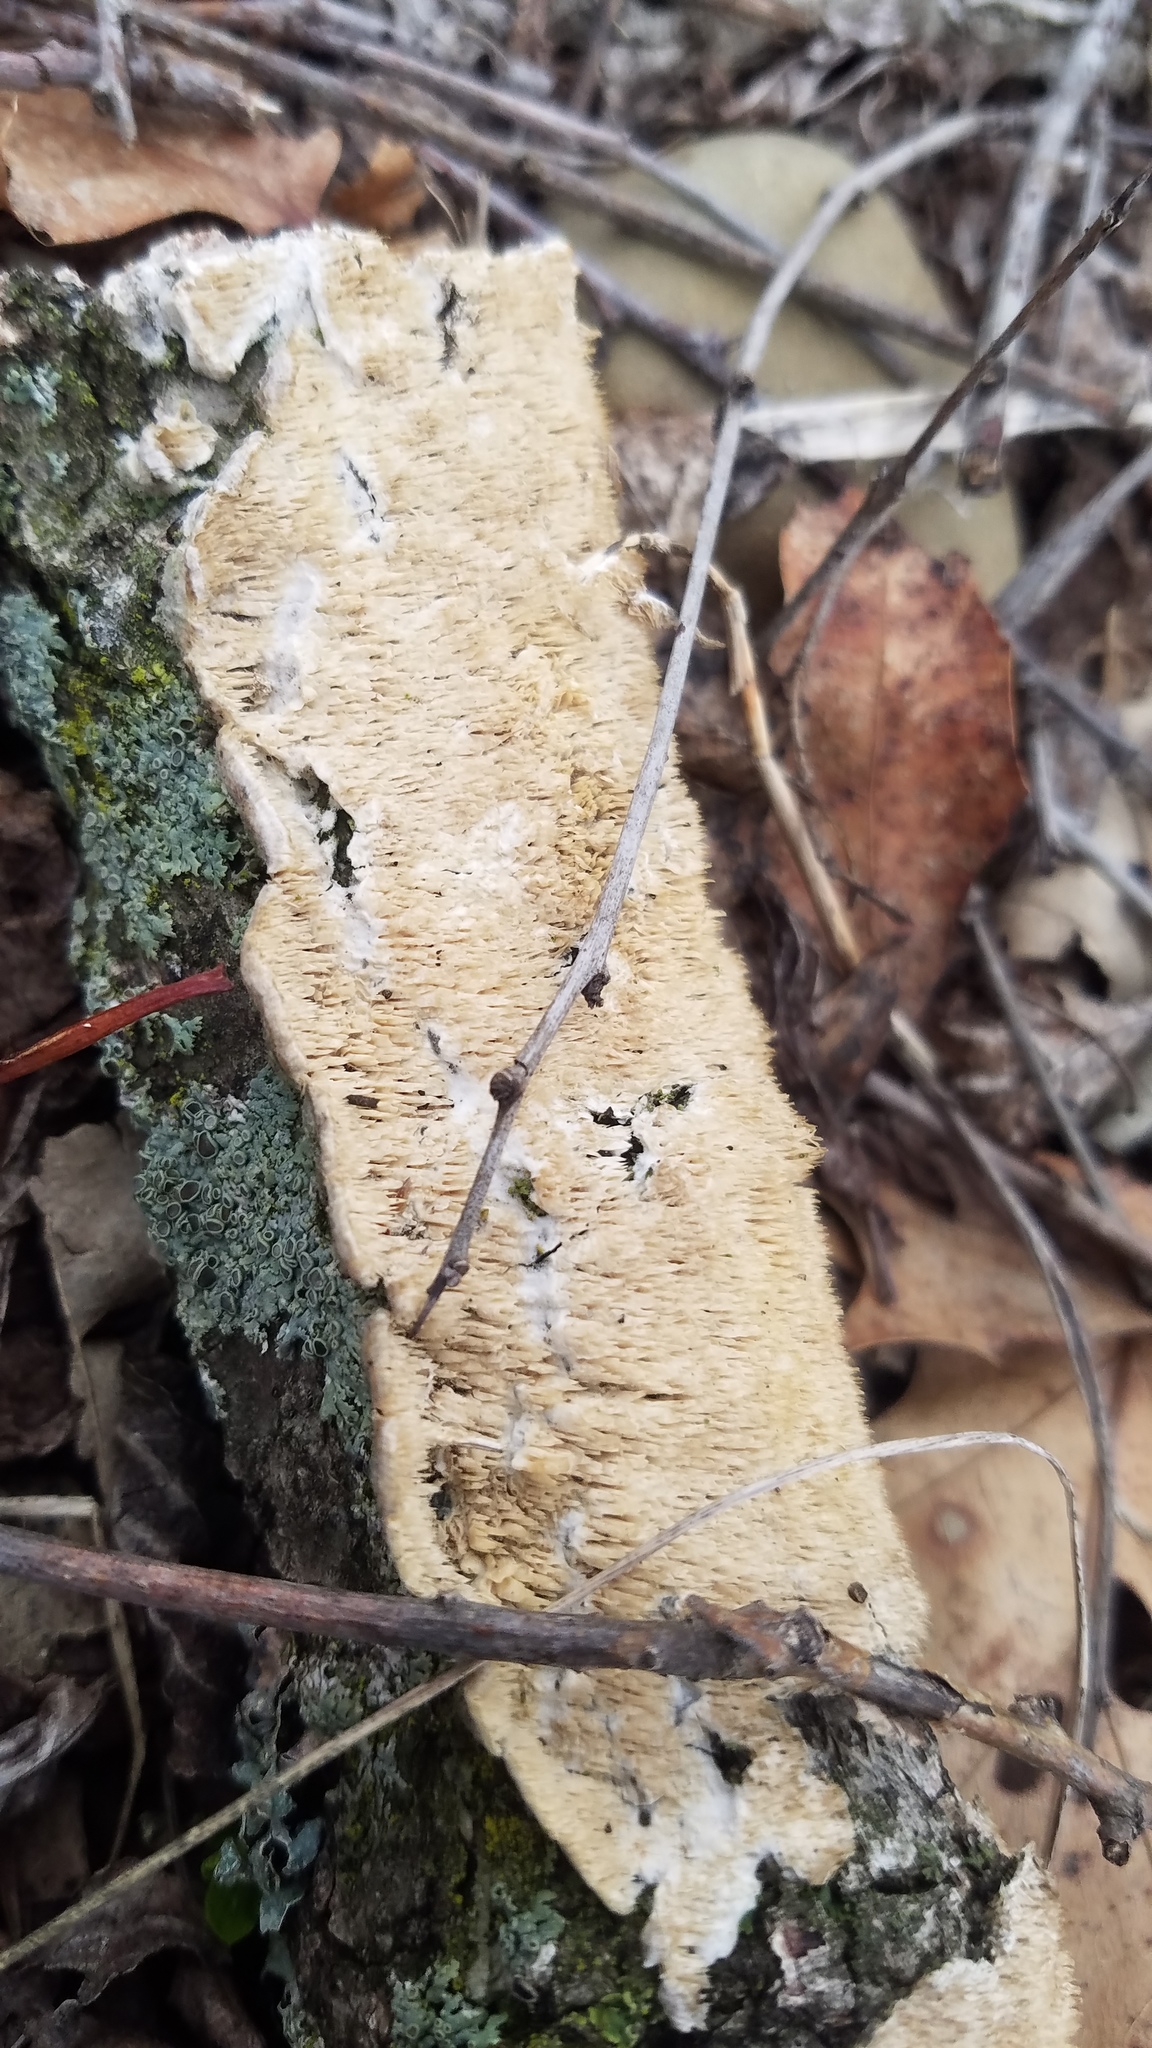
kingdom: Fungi
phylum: Basidiomycota
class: Agaricomycetes
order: Polyporales
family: Irpicaceae
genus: Irpex
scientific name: Irpex lacteus
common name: Milk-white toothed polypore
